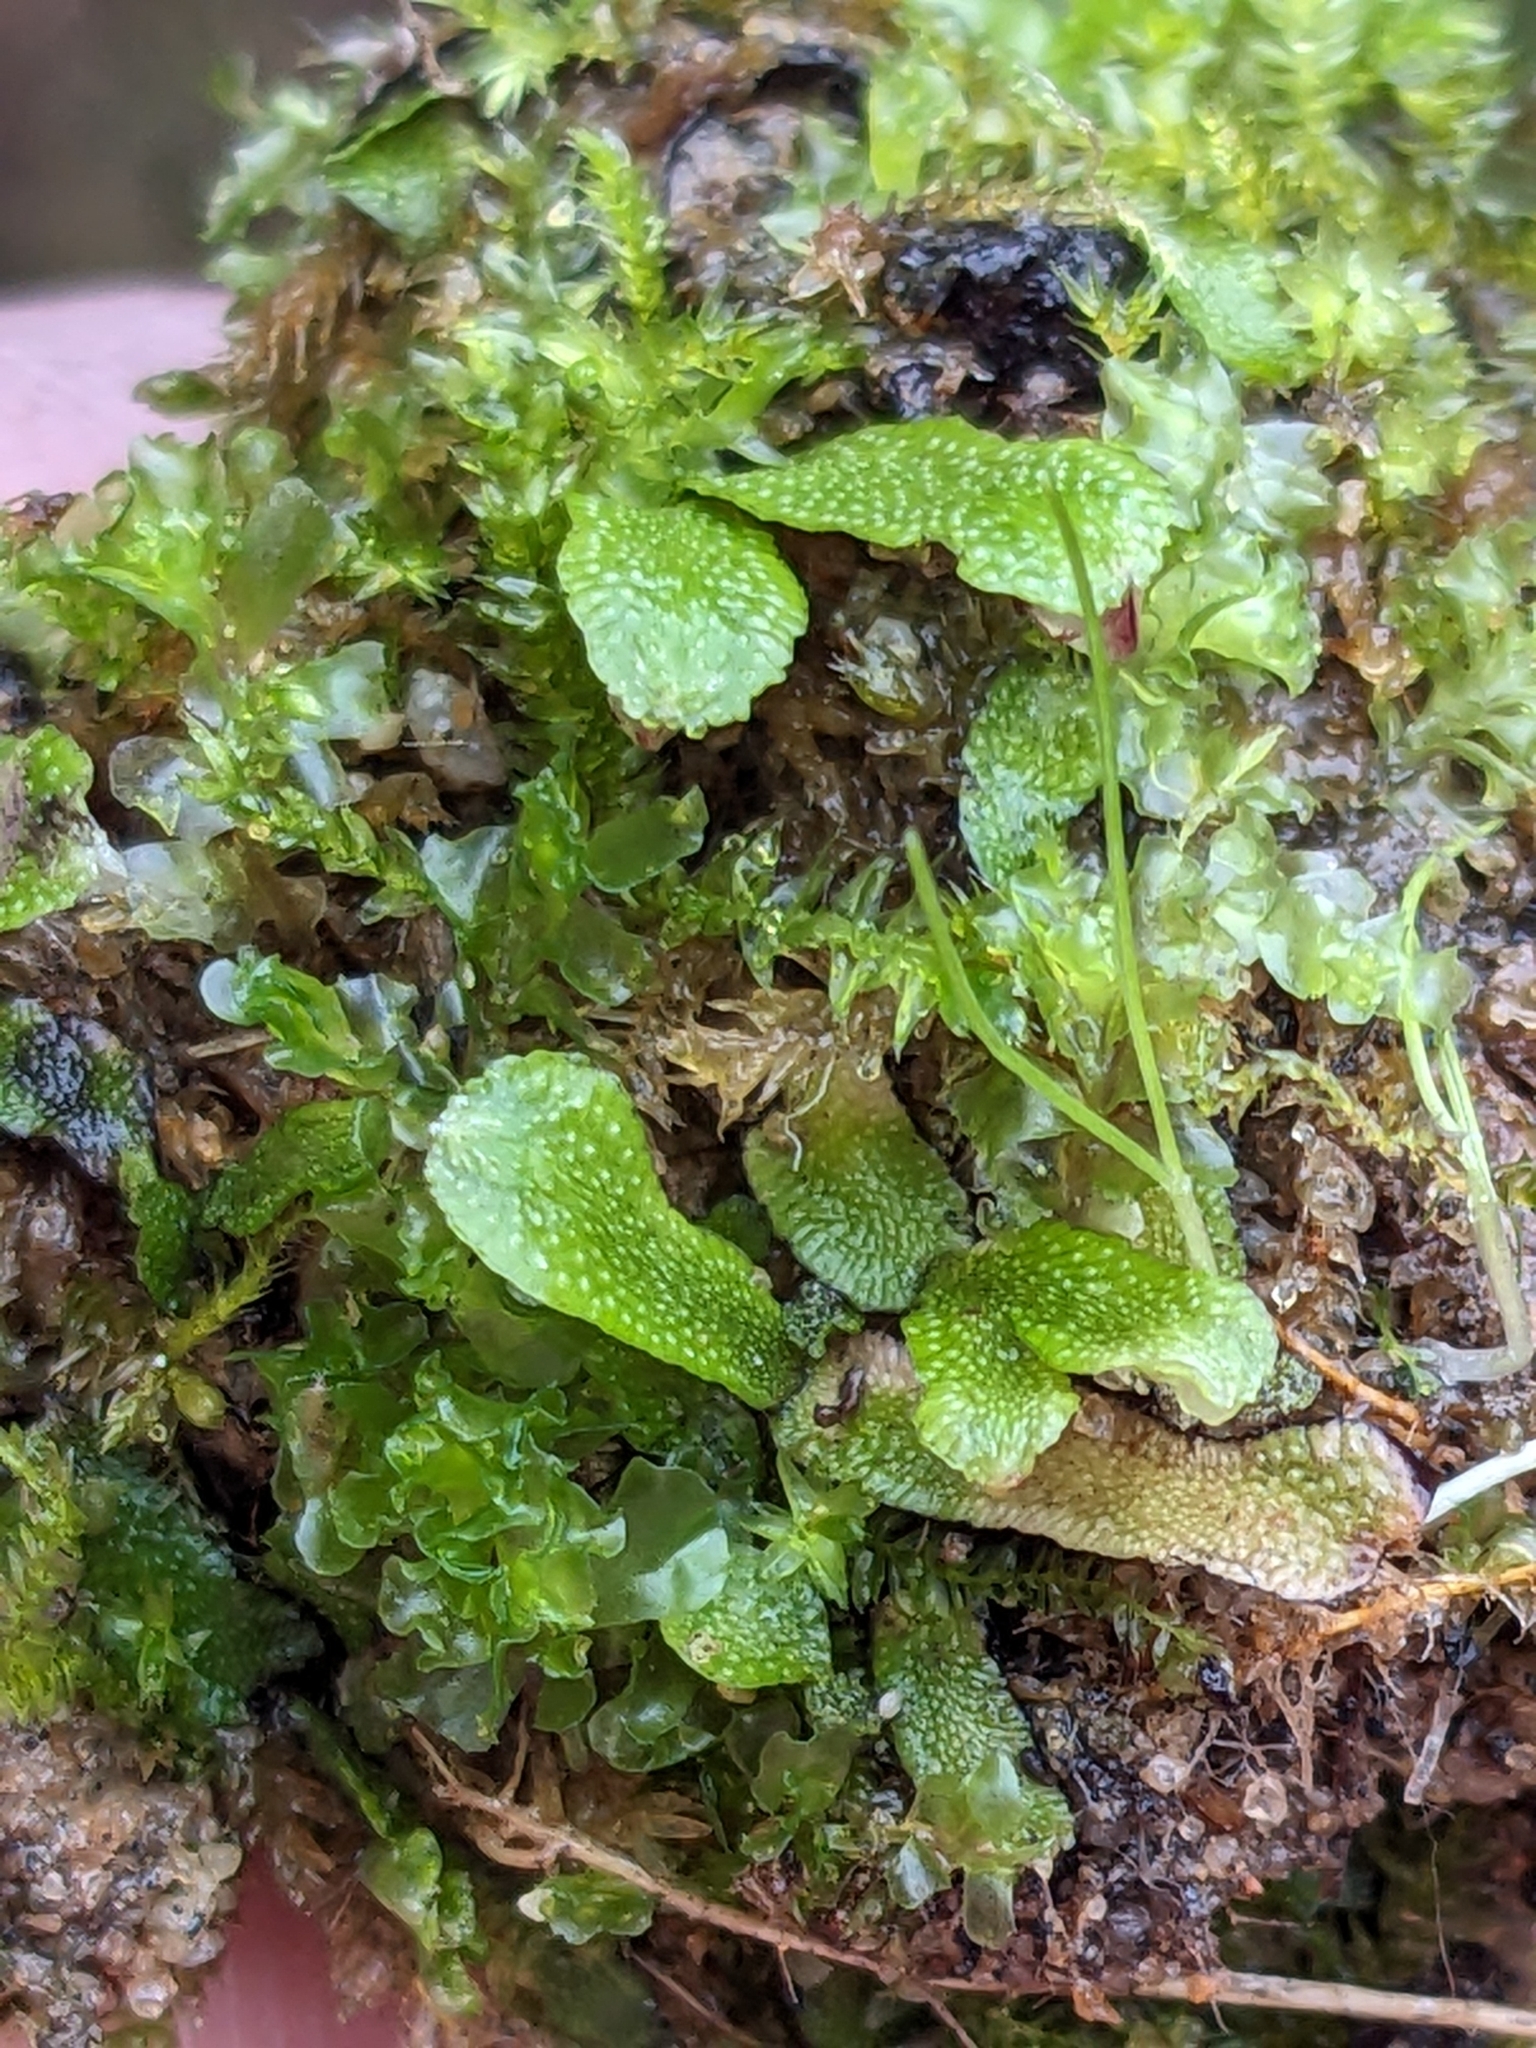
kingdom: Plantae
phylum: Marchantiophyta
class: Marchantiopsida
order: Marchantiales
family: Targioniaceae
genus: Targionia
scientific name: Targionia hypophylla
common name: Orobus-seed liverwort
